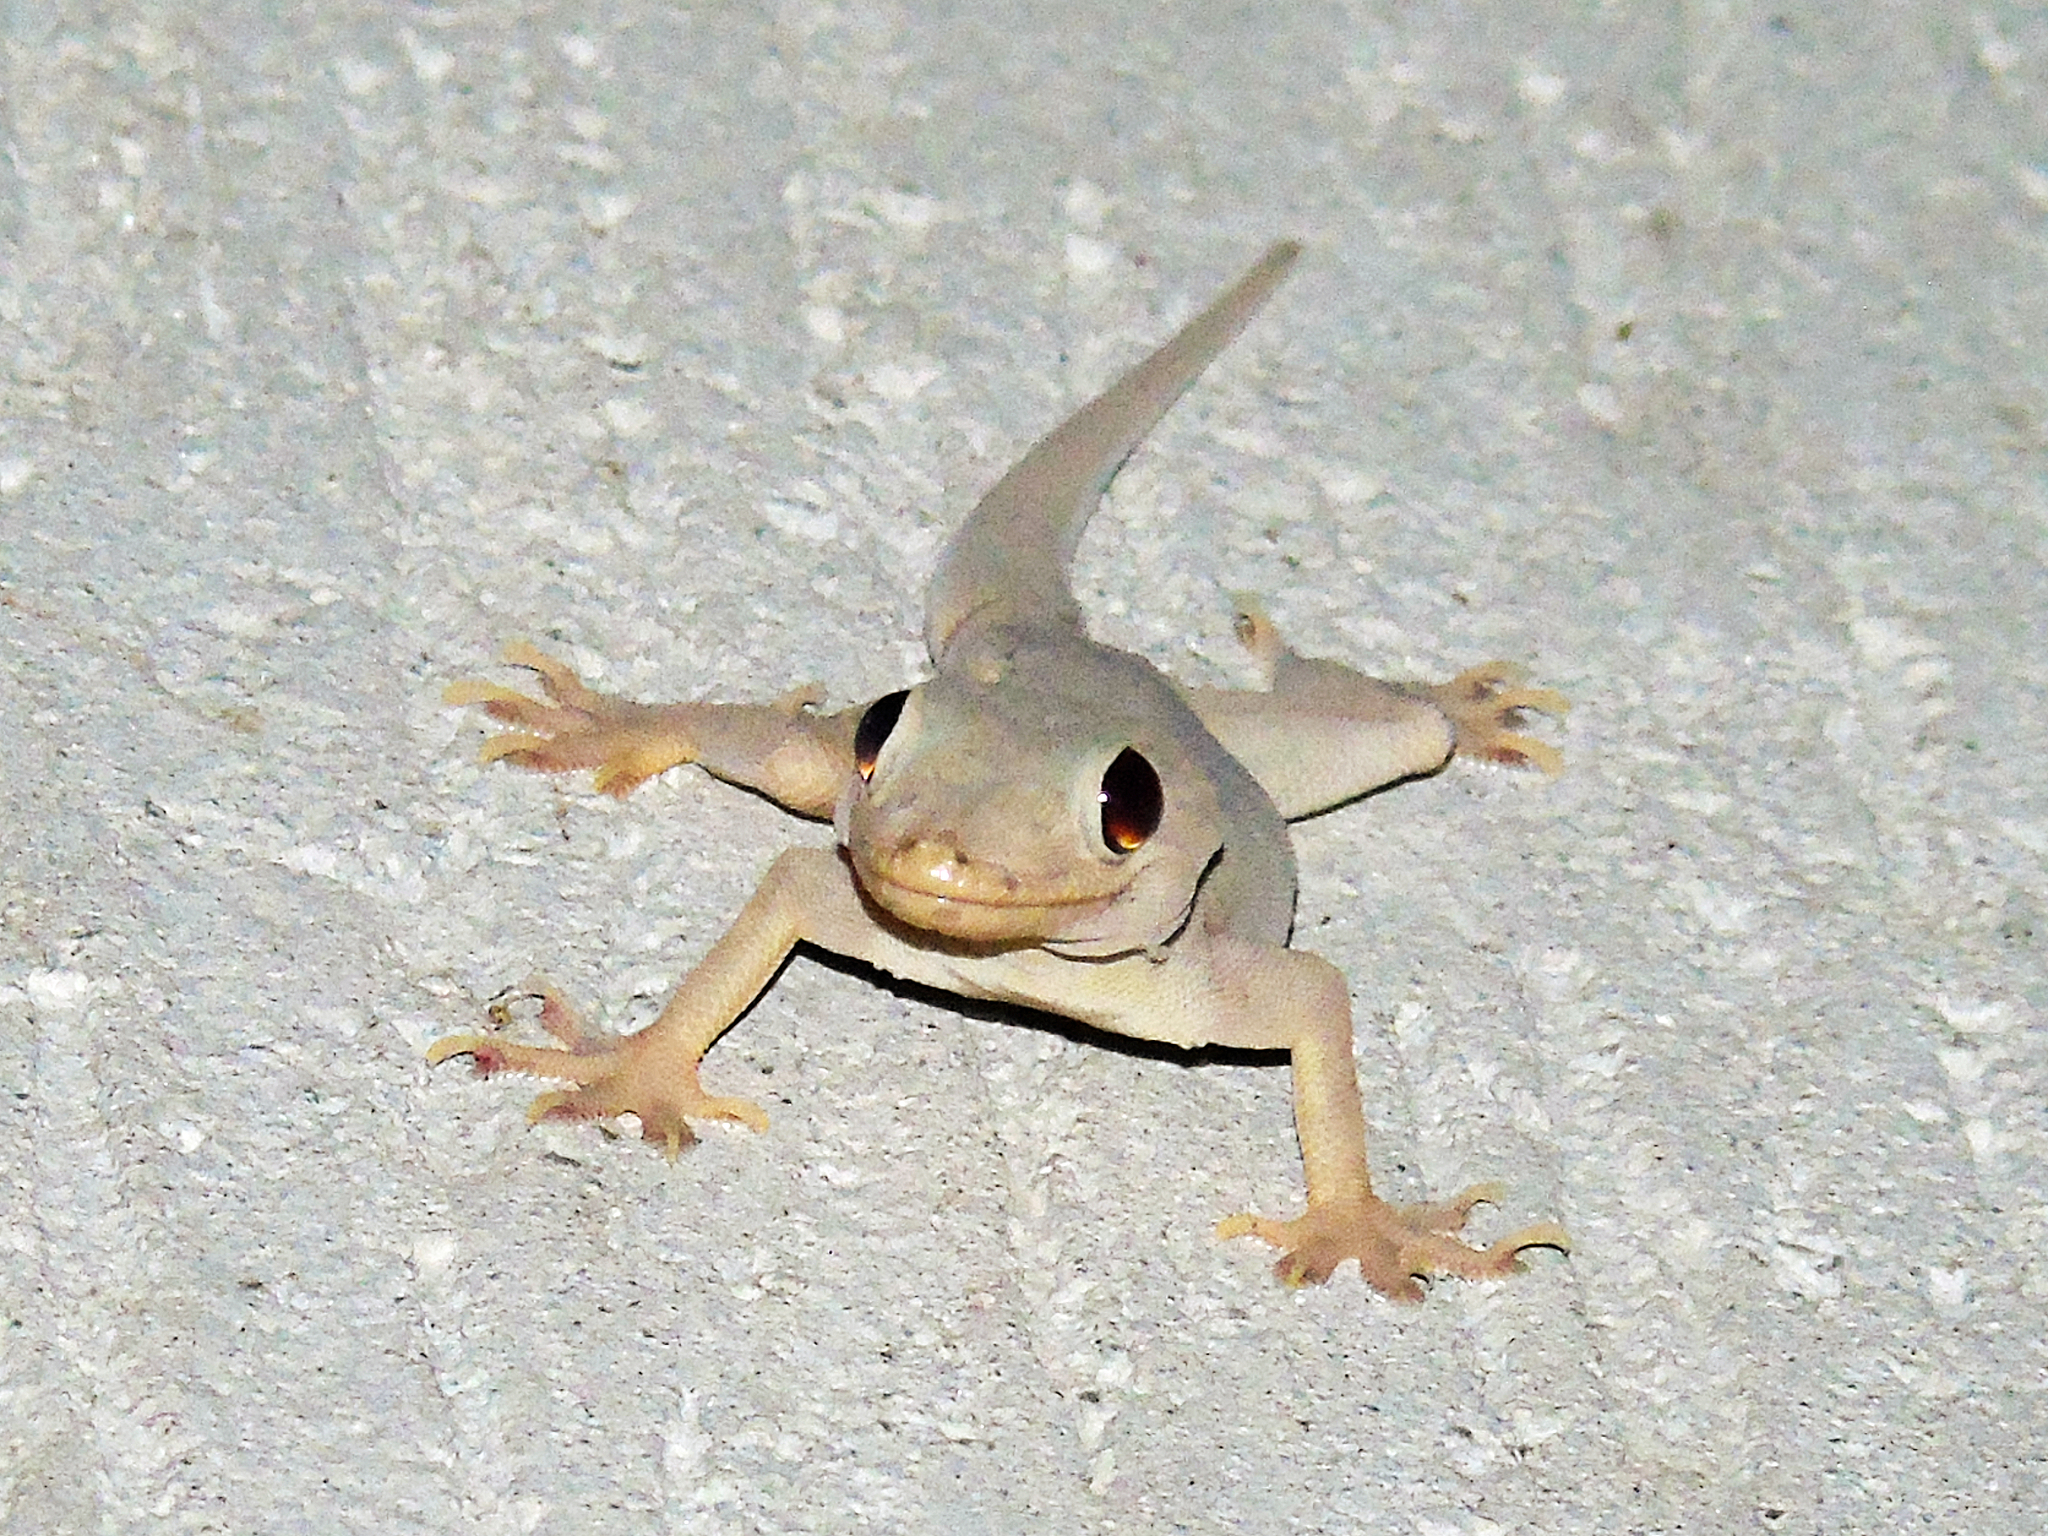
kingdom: Animalia
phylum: Chordata
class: Squamata
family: Gekkonidae
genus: Hemidactylus
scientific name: Hemidactylus flaviviridis
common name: Northern house gecko
